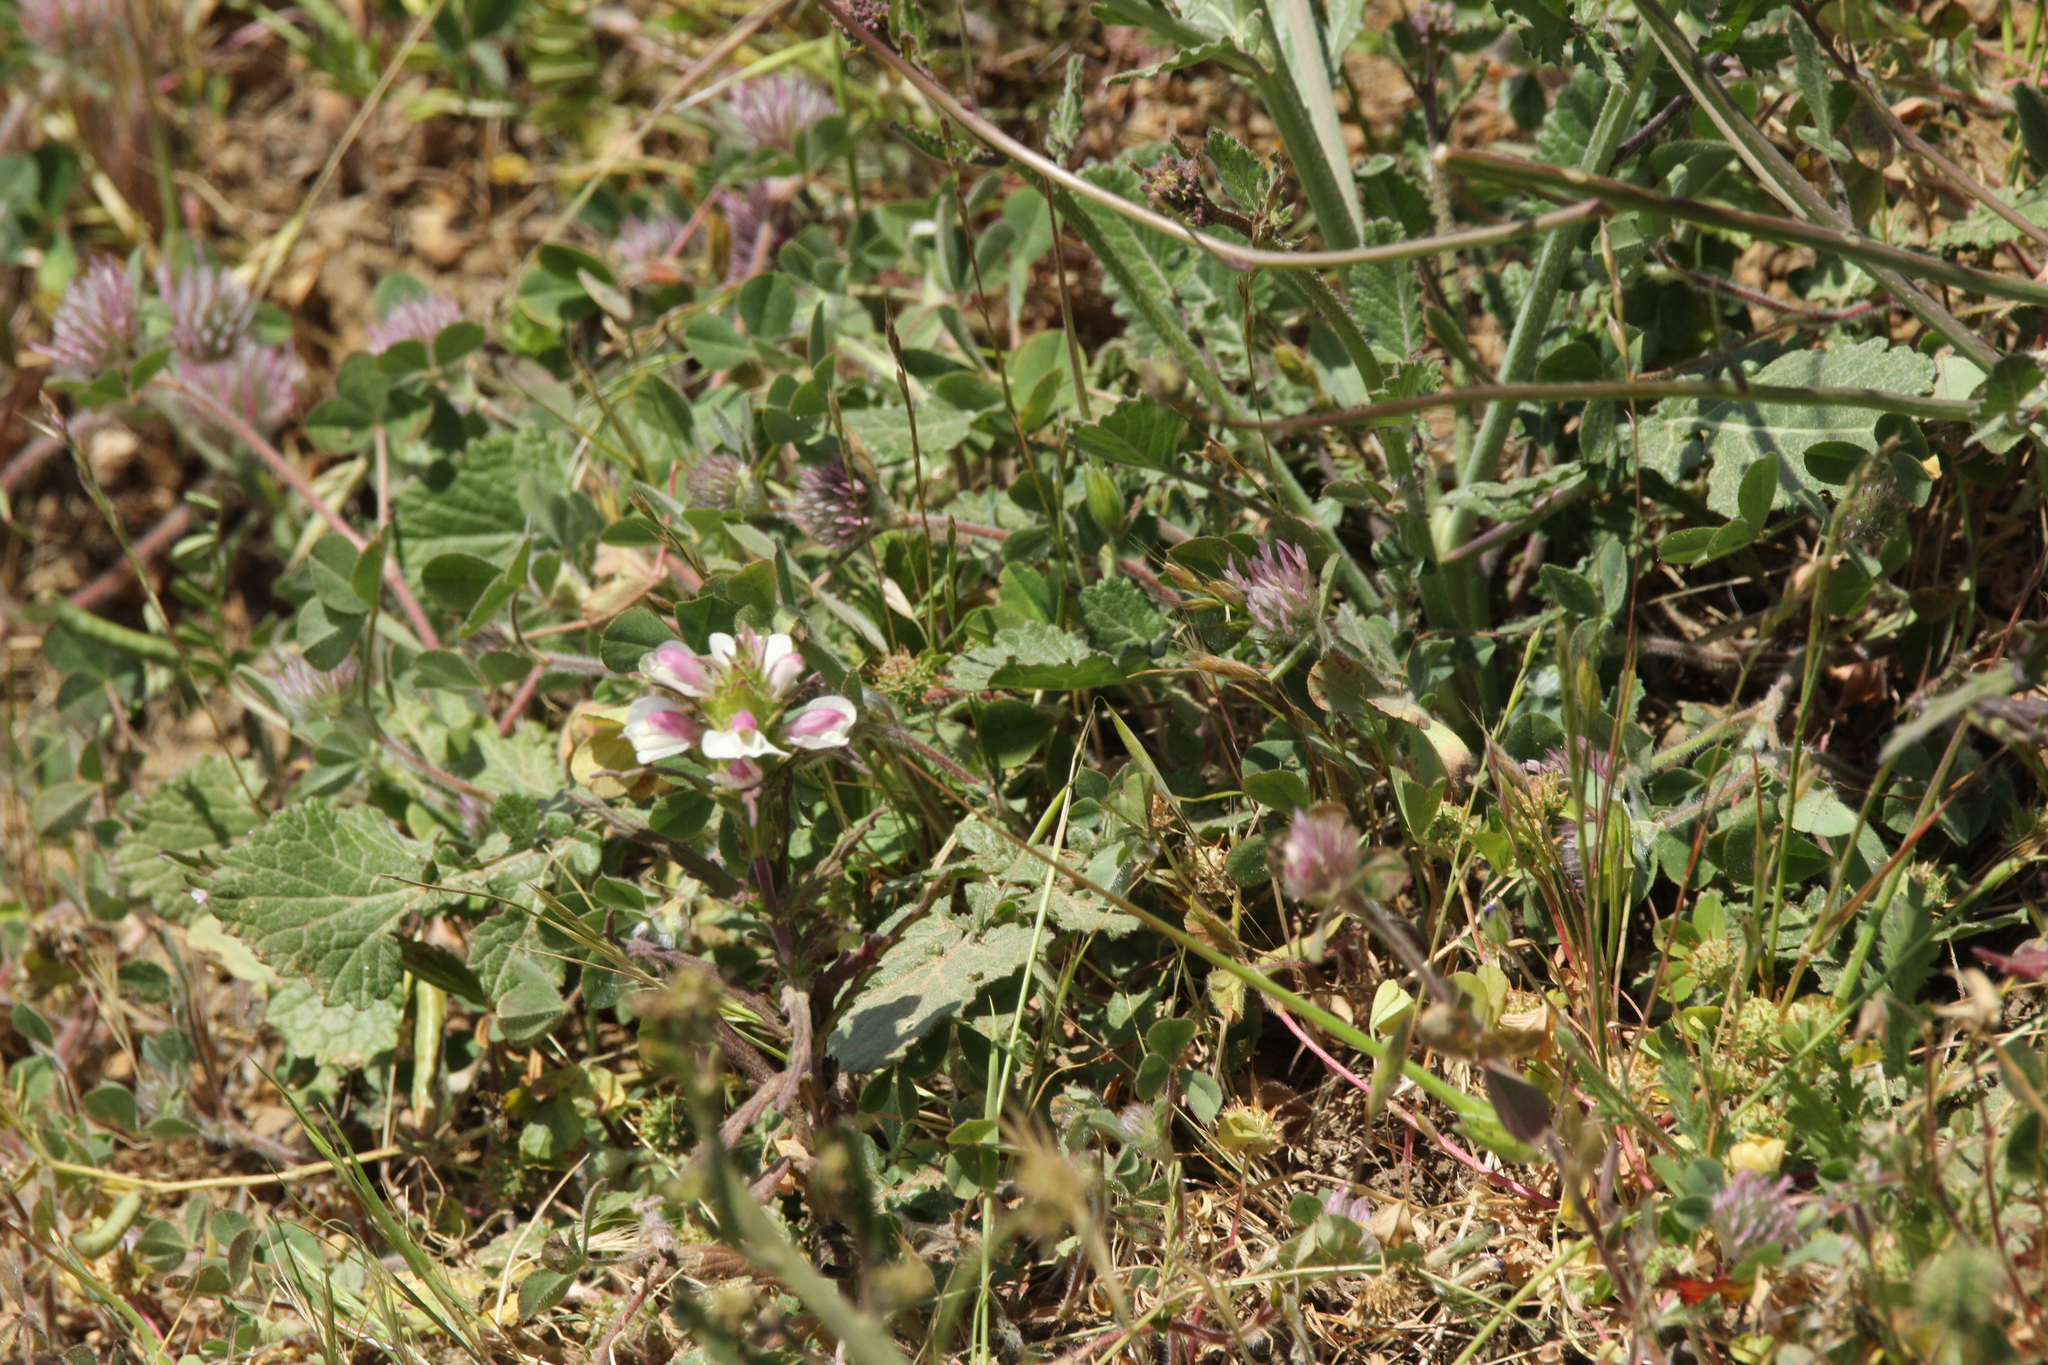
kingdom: Plantae
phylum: Tracheophyta
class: Magnoliopsida
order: Lamiales
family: Orobanchaceae
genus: Bellardia
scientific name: Bellardia trixago
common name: Mediterranean lineseed
